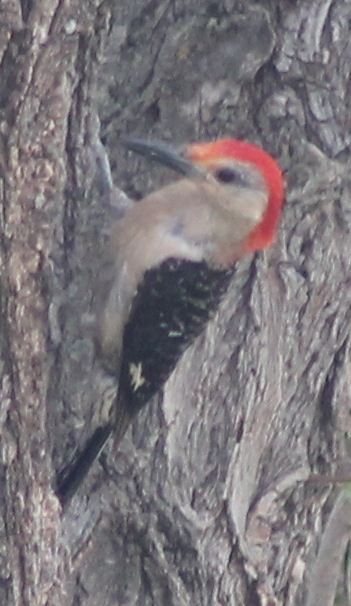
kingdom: Animalia
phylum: Chordata
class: Aves
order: Piciformes
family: Picidae
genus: Melanerpes
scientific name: Melanerpes carolinus
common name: Red-bellied woodpecker
